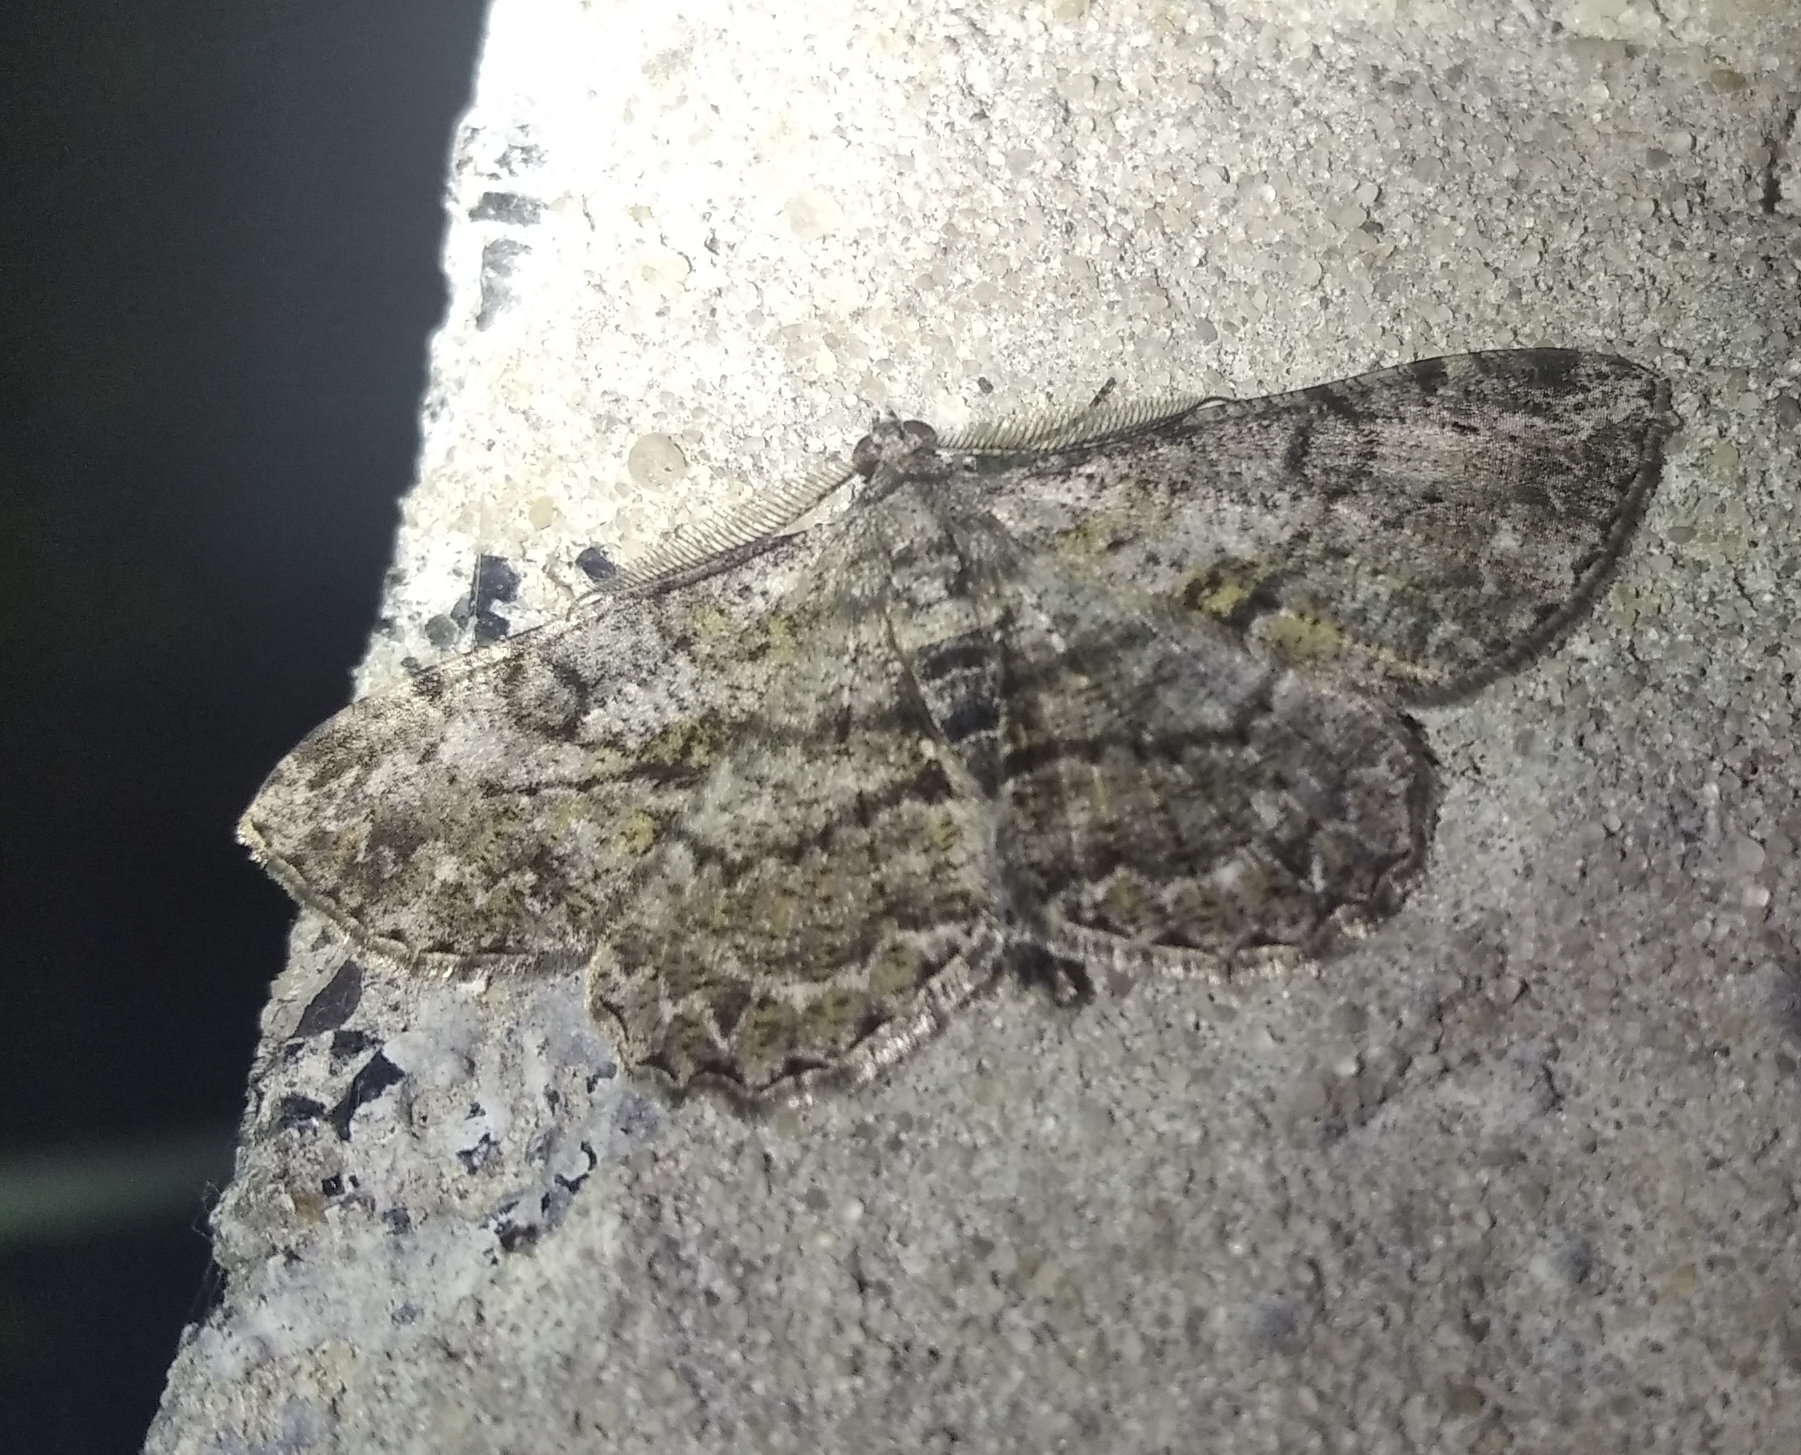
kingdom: Animalia
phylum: Arthropoda
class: Insecta
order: Lepidoptera
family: Geometridae
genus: Peribatodes
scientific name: Peribatodes rhomboidaria
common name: Willow beauty
